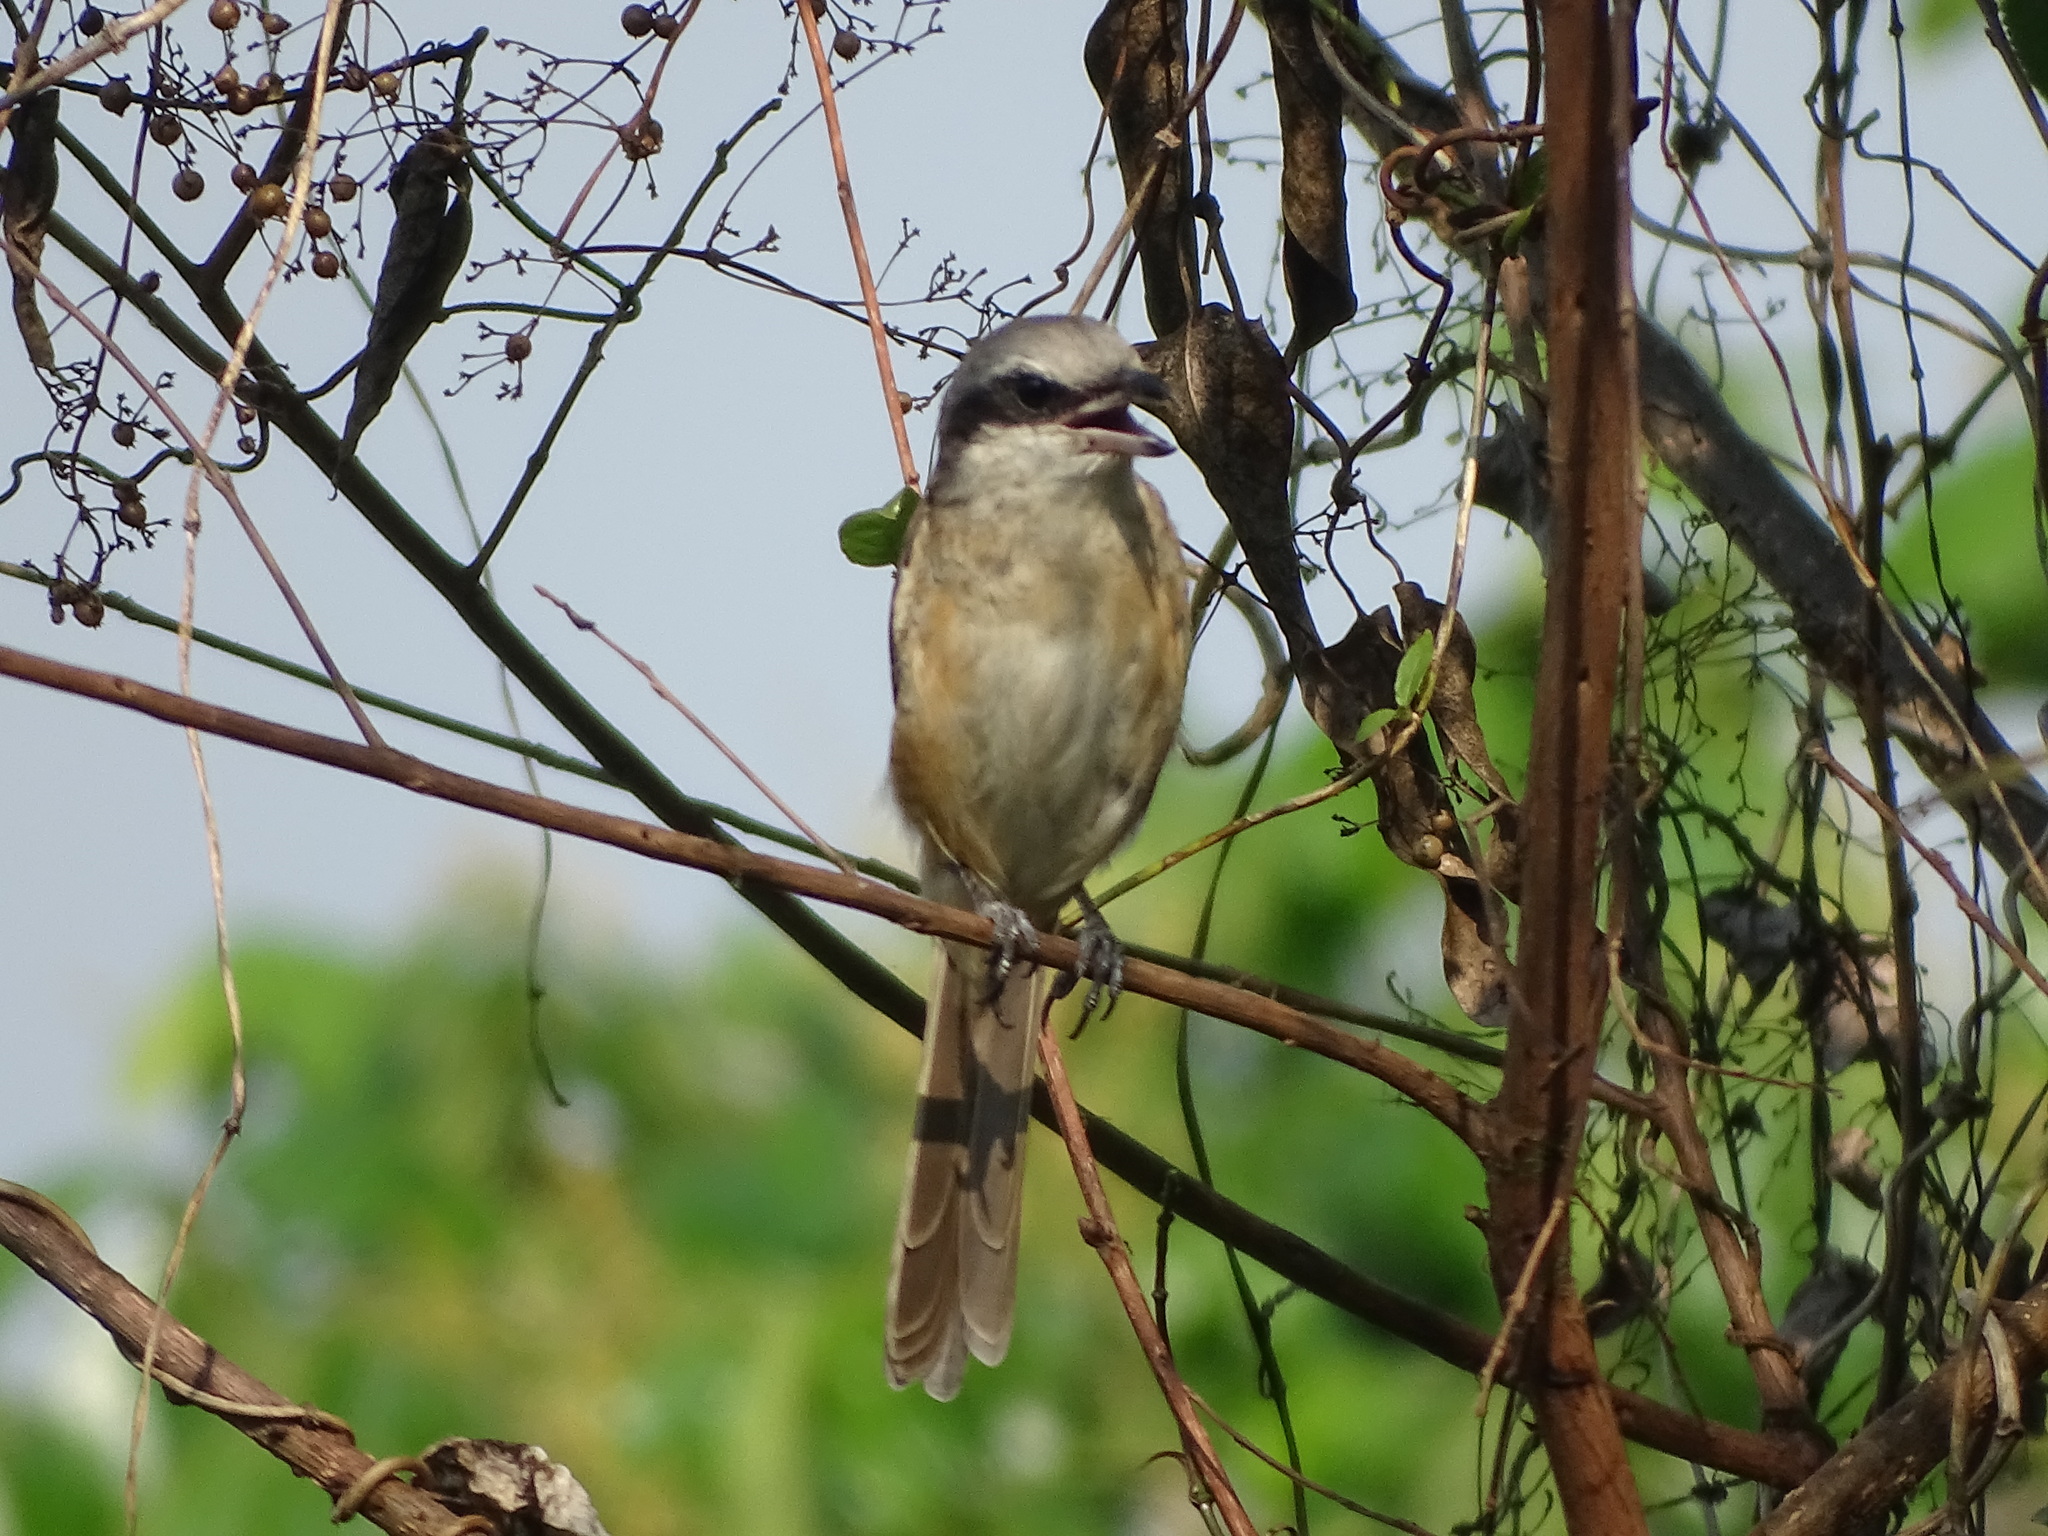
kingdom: Animalia
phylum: Chordata
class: Aves
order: Passeriformes
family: Laniidae
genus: Lanius
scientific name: Lanius cristatus
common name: Brown shrike
